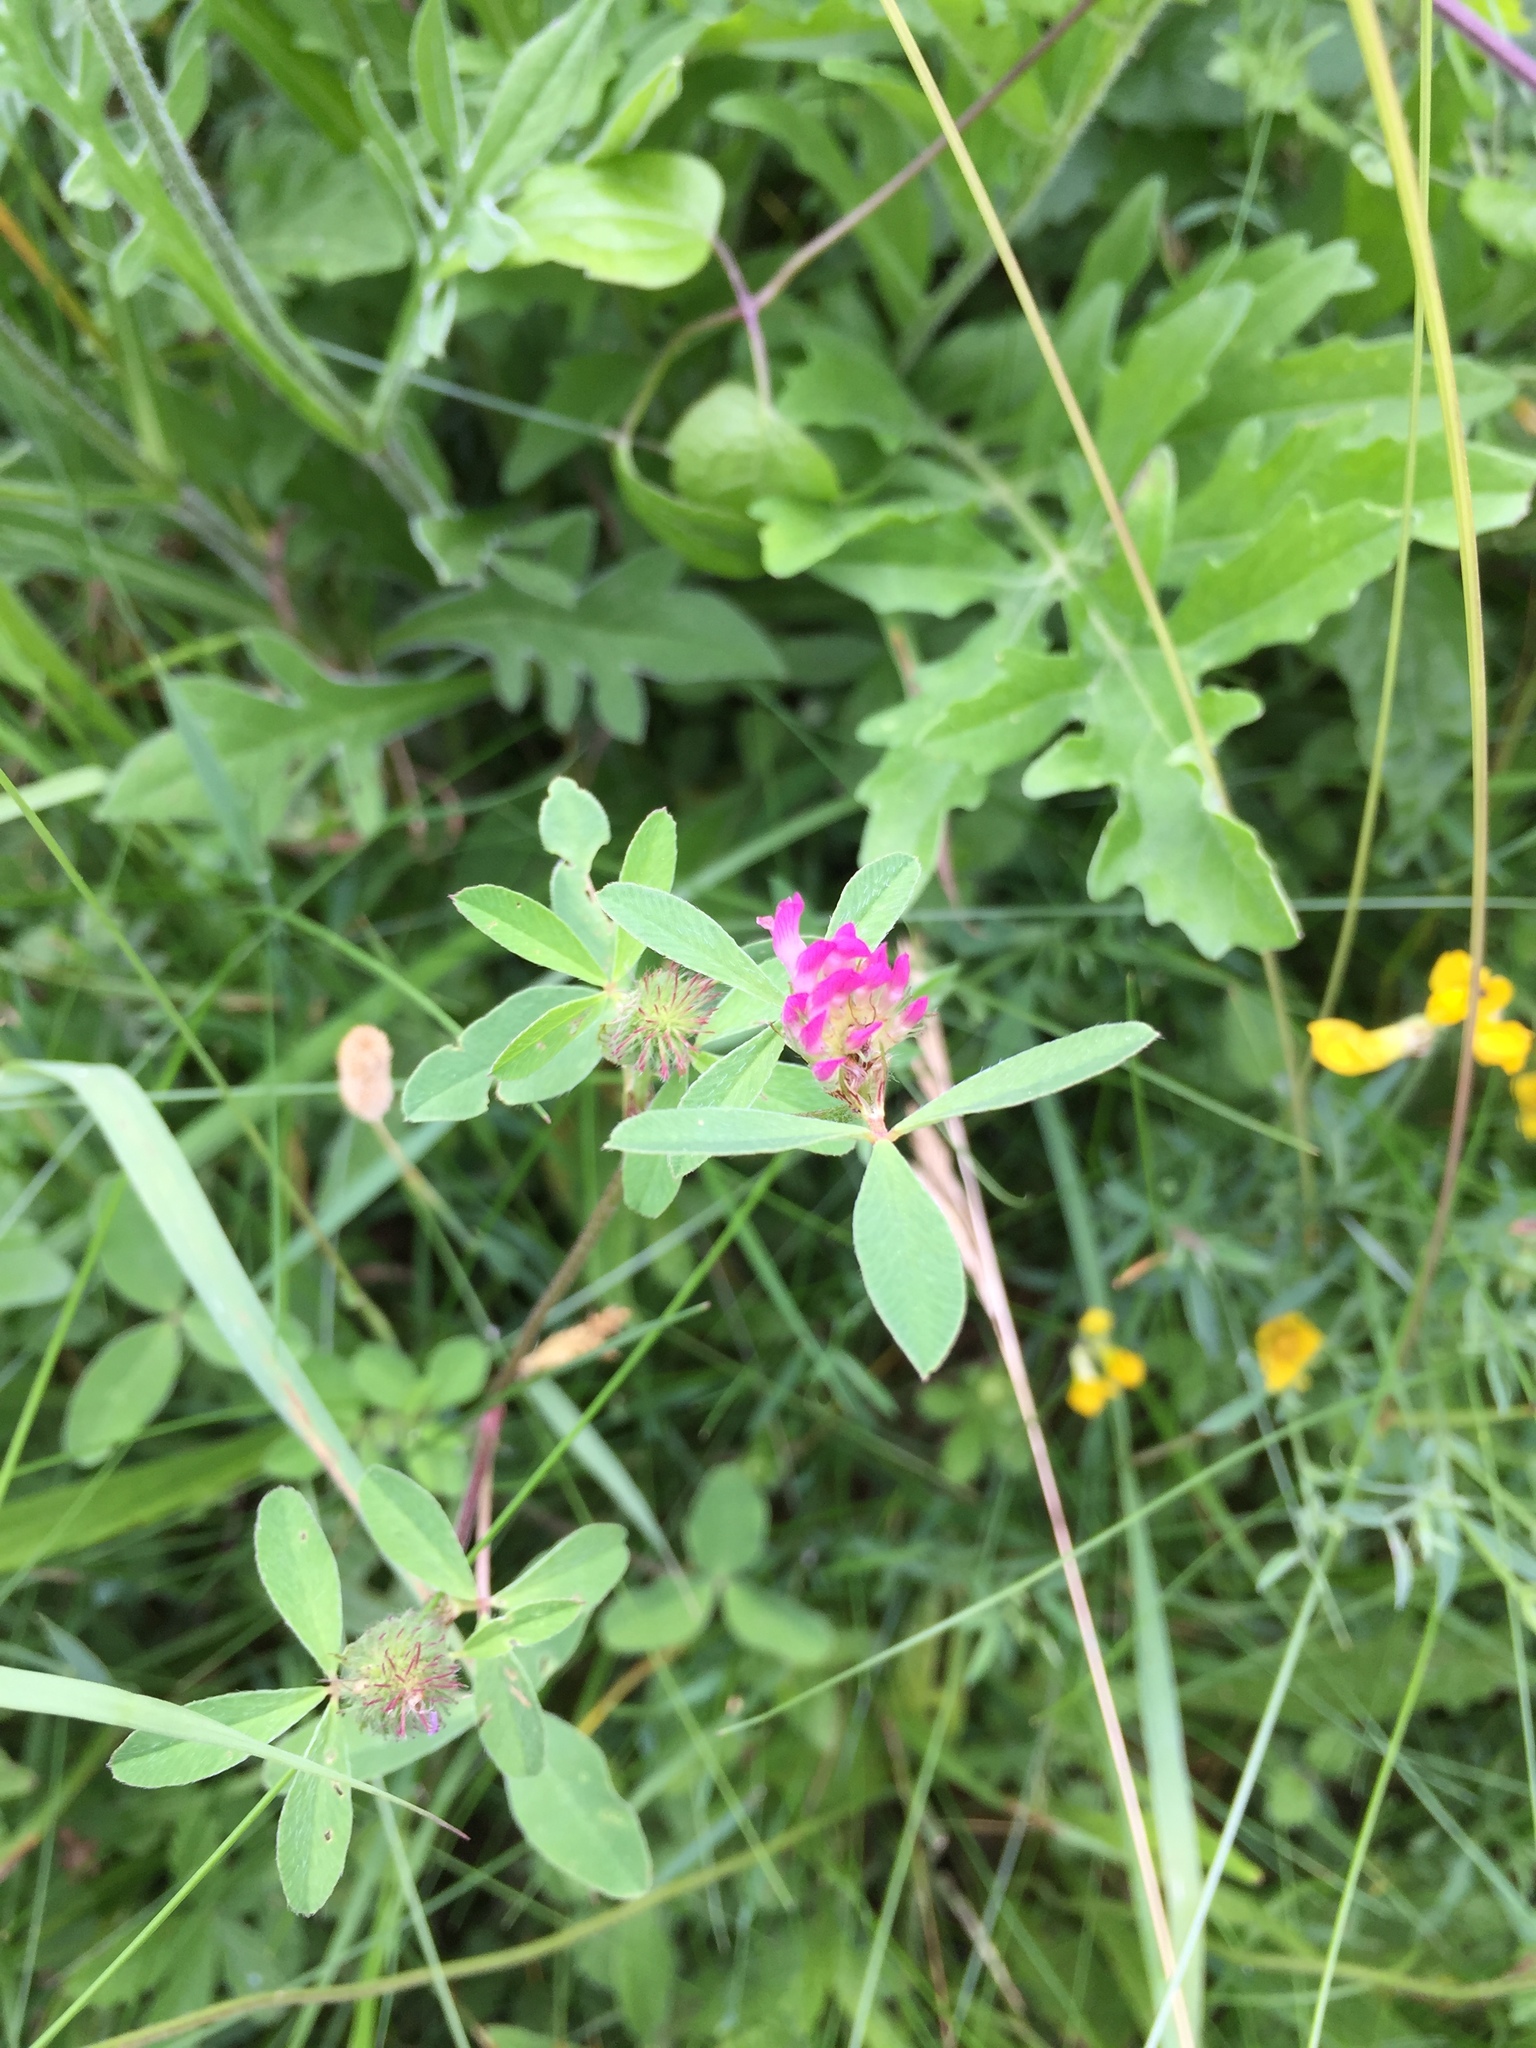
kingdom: Plantae
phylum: Tracheophyta
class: Magnoliopsida
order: Fabales
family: Fabaceae
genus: Trifolium
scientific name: Trifolium medium
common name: Zigzag clover
